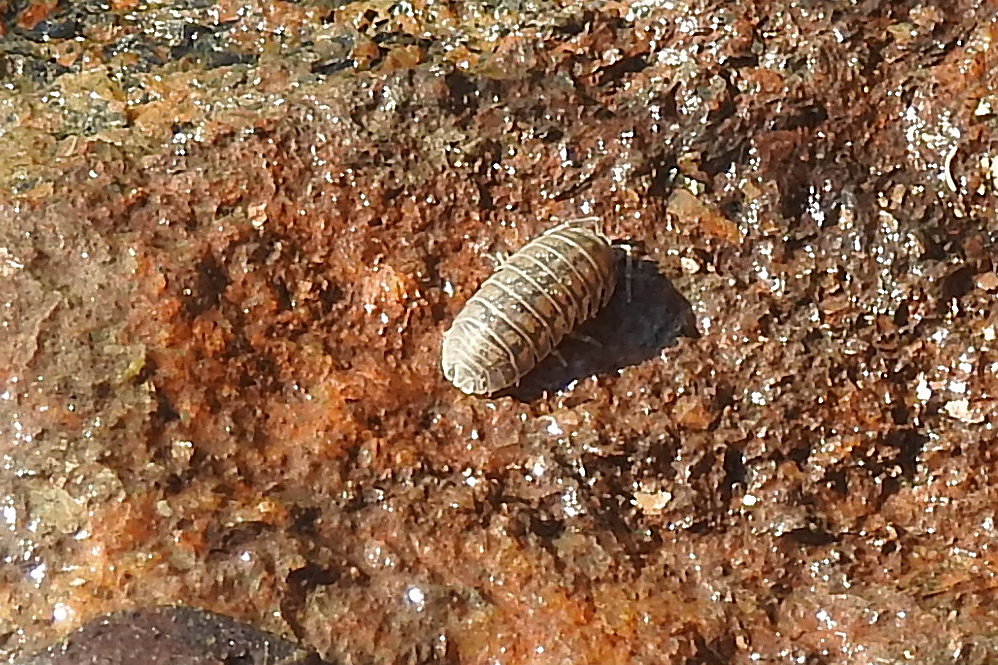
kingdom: Animalia
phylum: Arthropoda
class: Malacostraca
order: Isopoda
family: Armadillidiidae
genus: Armadillidium
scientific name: Armadillidium nasatum
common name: Isopod
